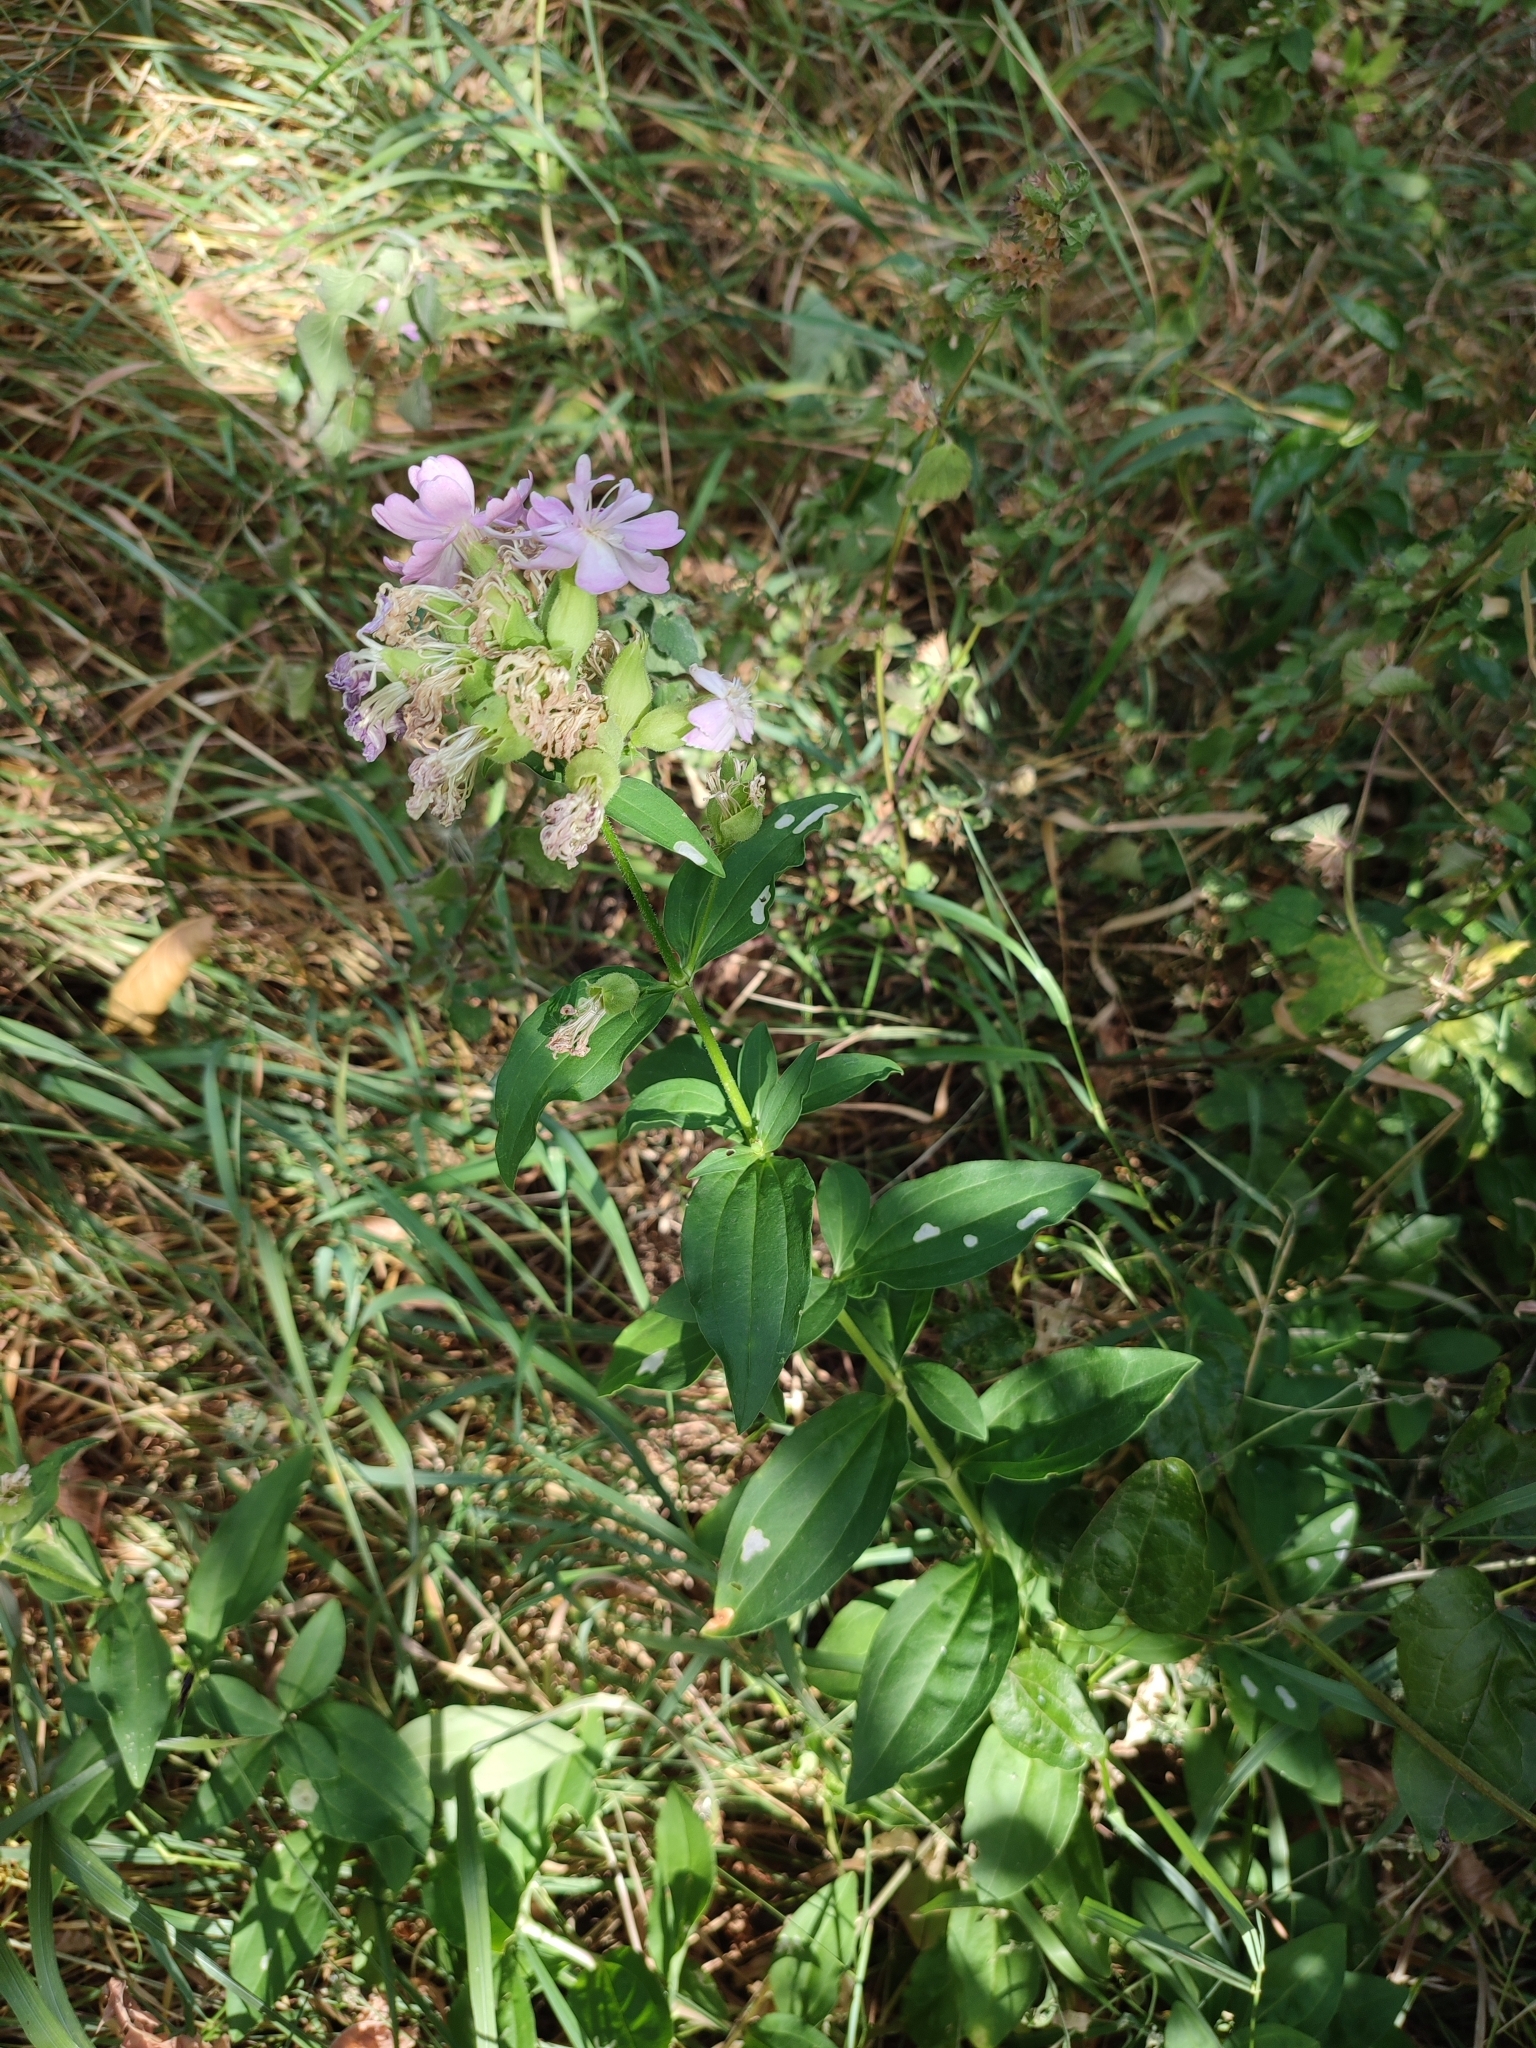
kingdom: Plantae
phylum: Tracheophyta
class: Magnoliopsida
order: Caryophyllales
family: Caryophyllaceae
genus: Saponaria
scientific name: Saponaria officinalis
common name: Soapwort
